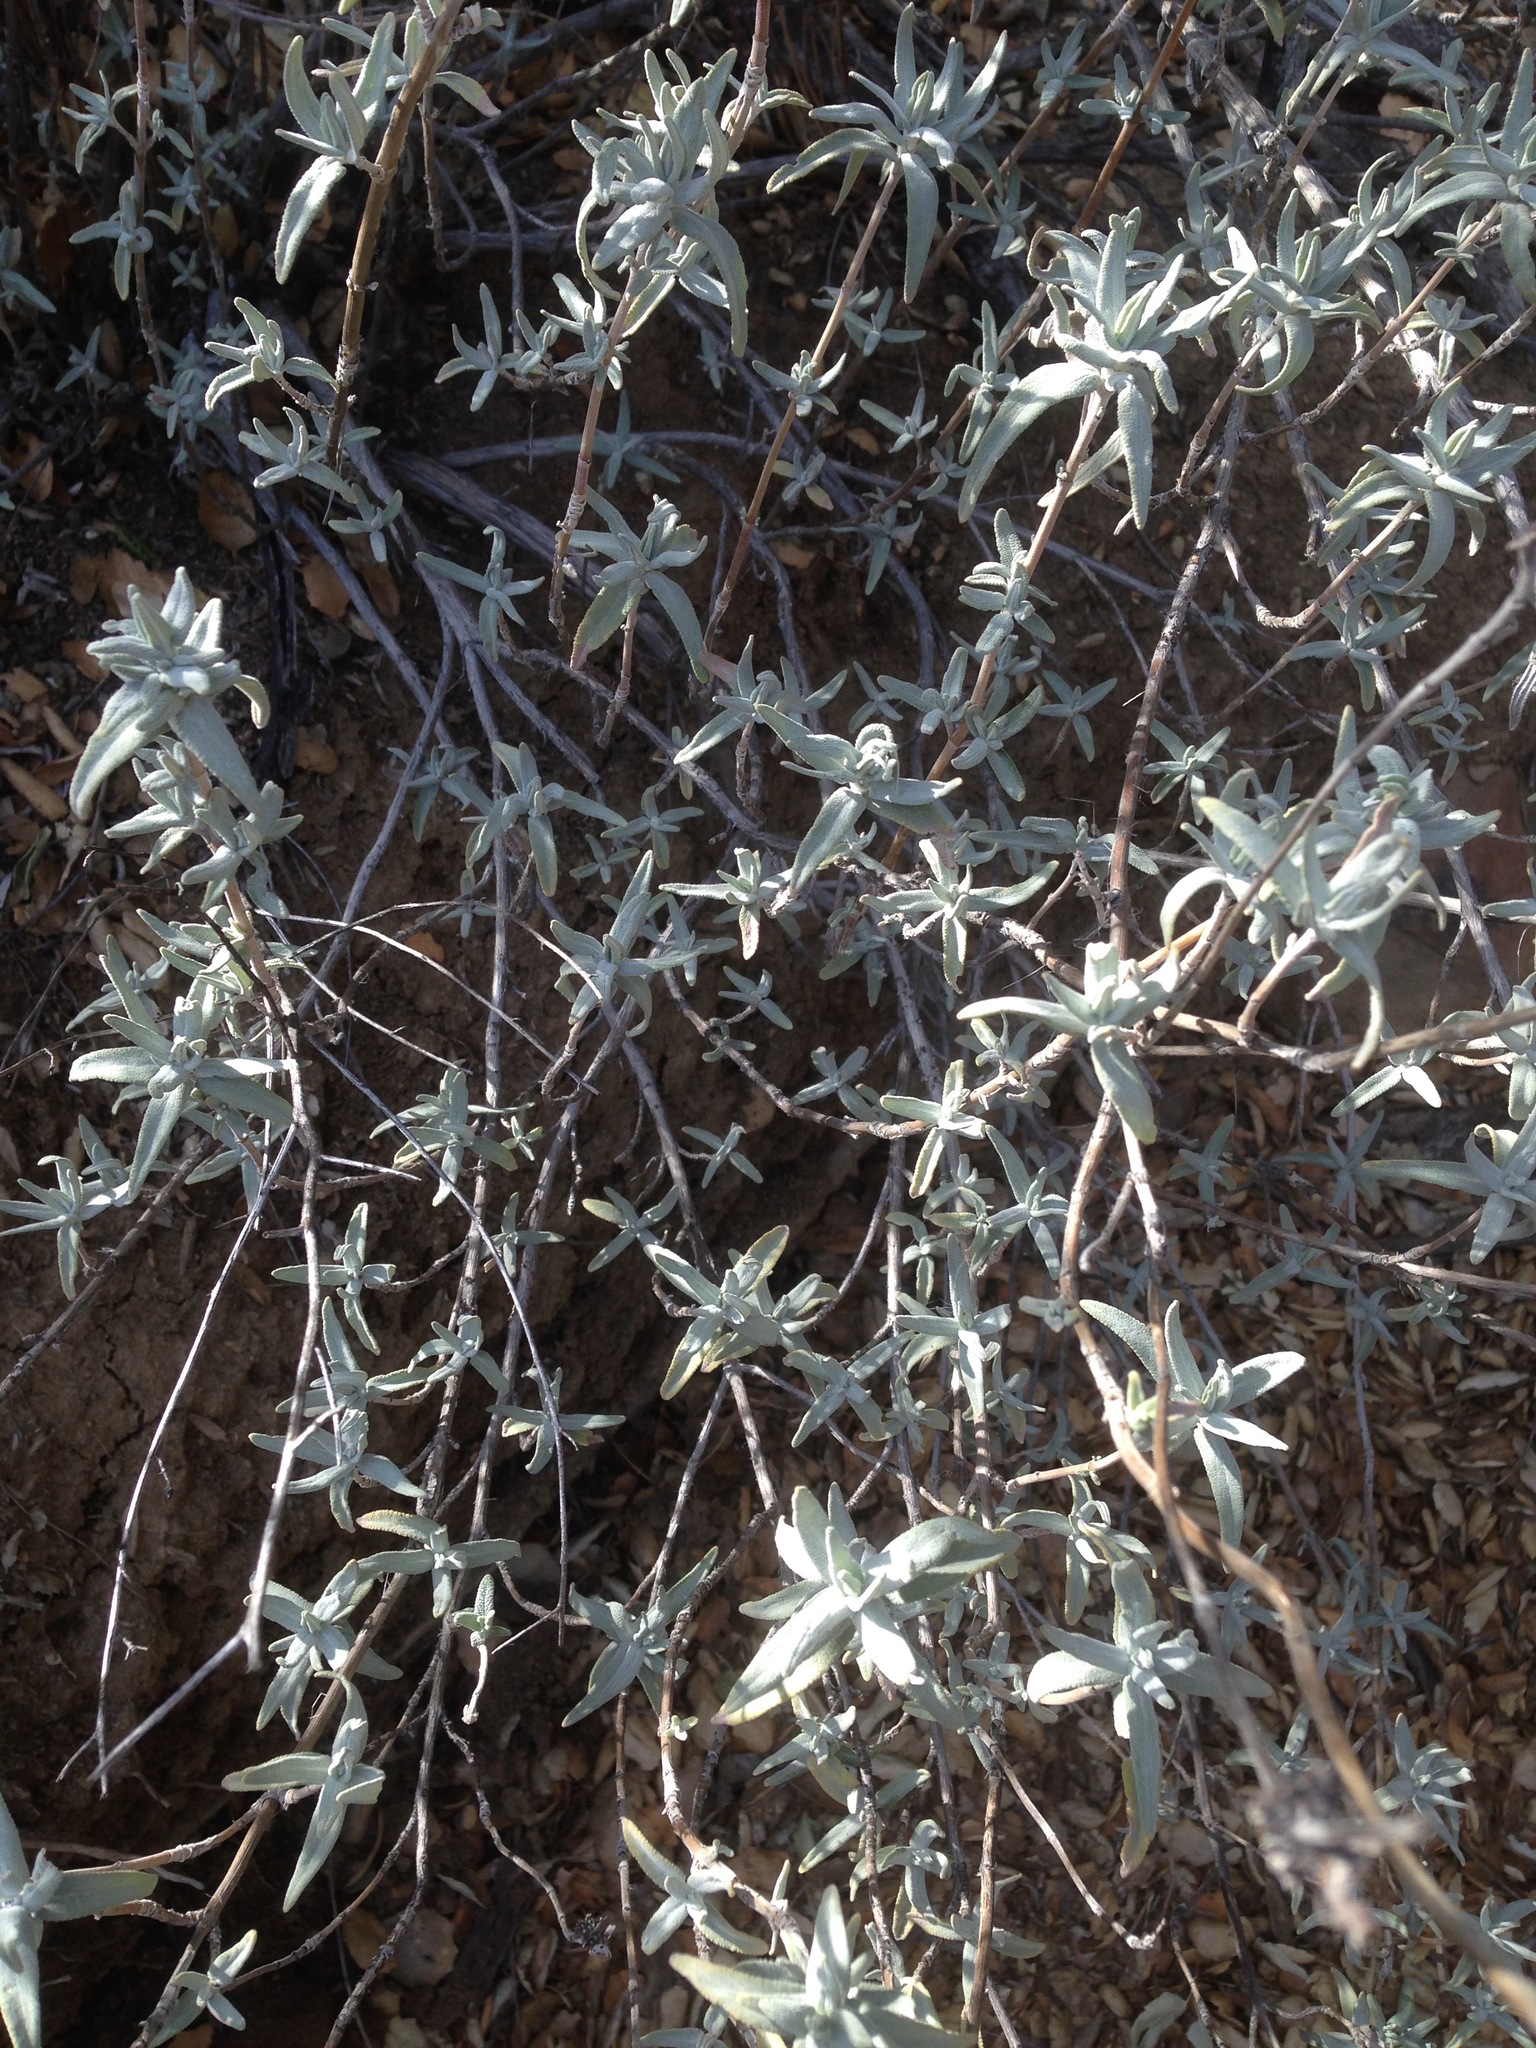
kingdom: Plantae
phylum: Tracheophyta
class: Magnoliopsida
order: Lamiales
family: Lamiaceae
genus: Salvia
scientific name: Salvia leucophylla
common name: Purple sage
